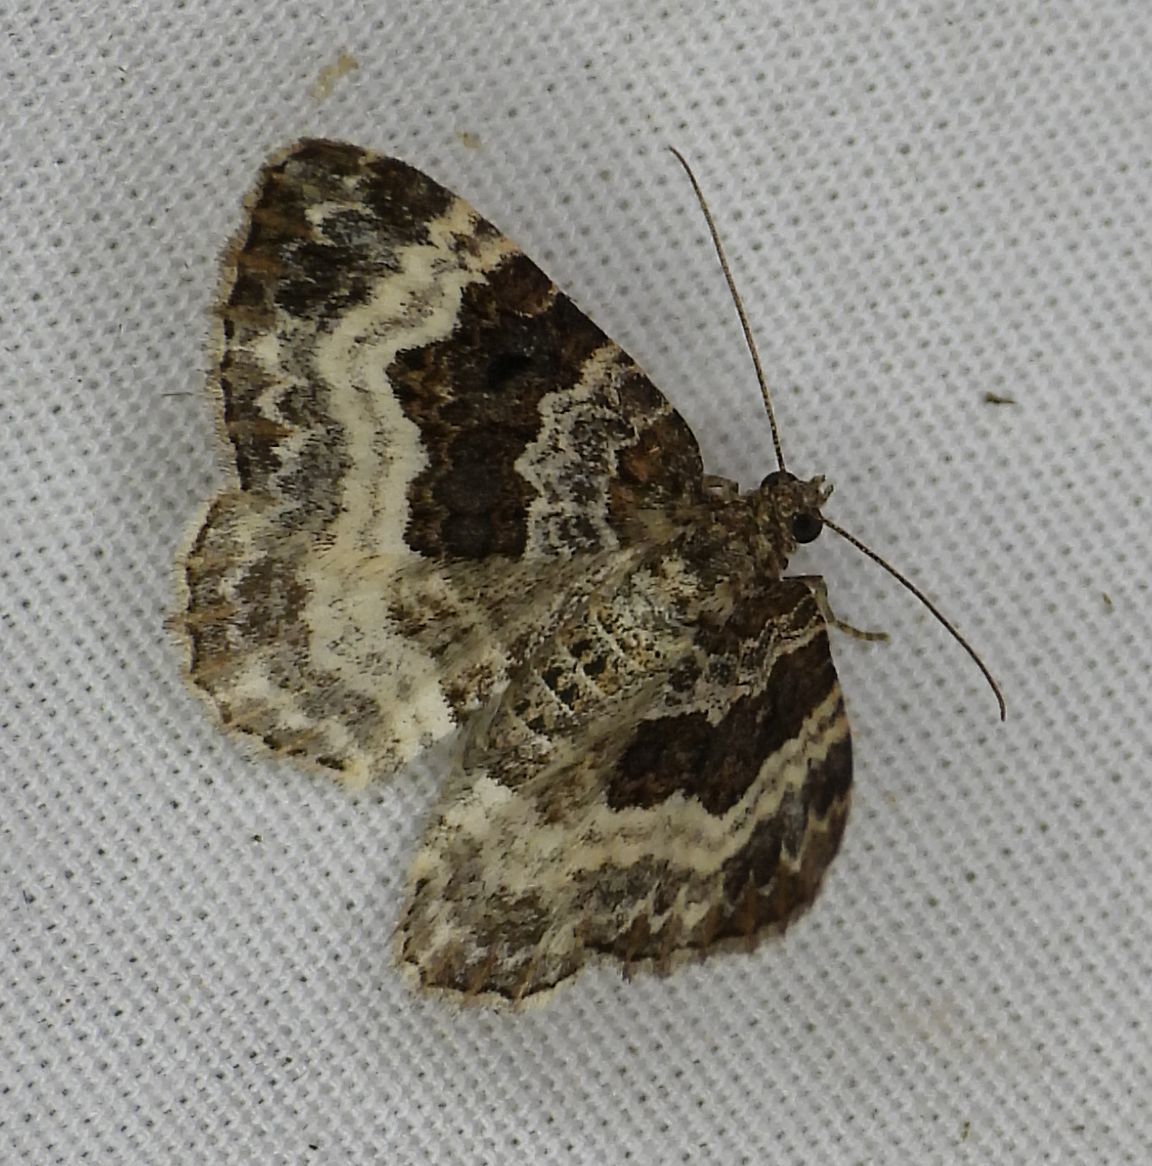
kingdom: Animalia
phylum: Arthropoda
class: Insecta
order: Lepidoptera
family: Geometridae
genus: Epirrhoe
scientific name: Epirrhoe alternata
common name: Common carpet
